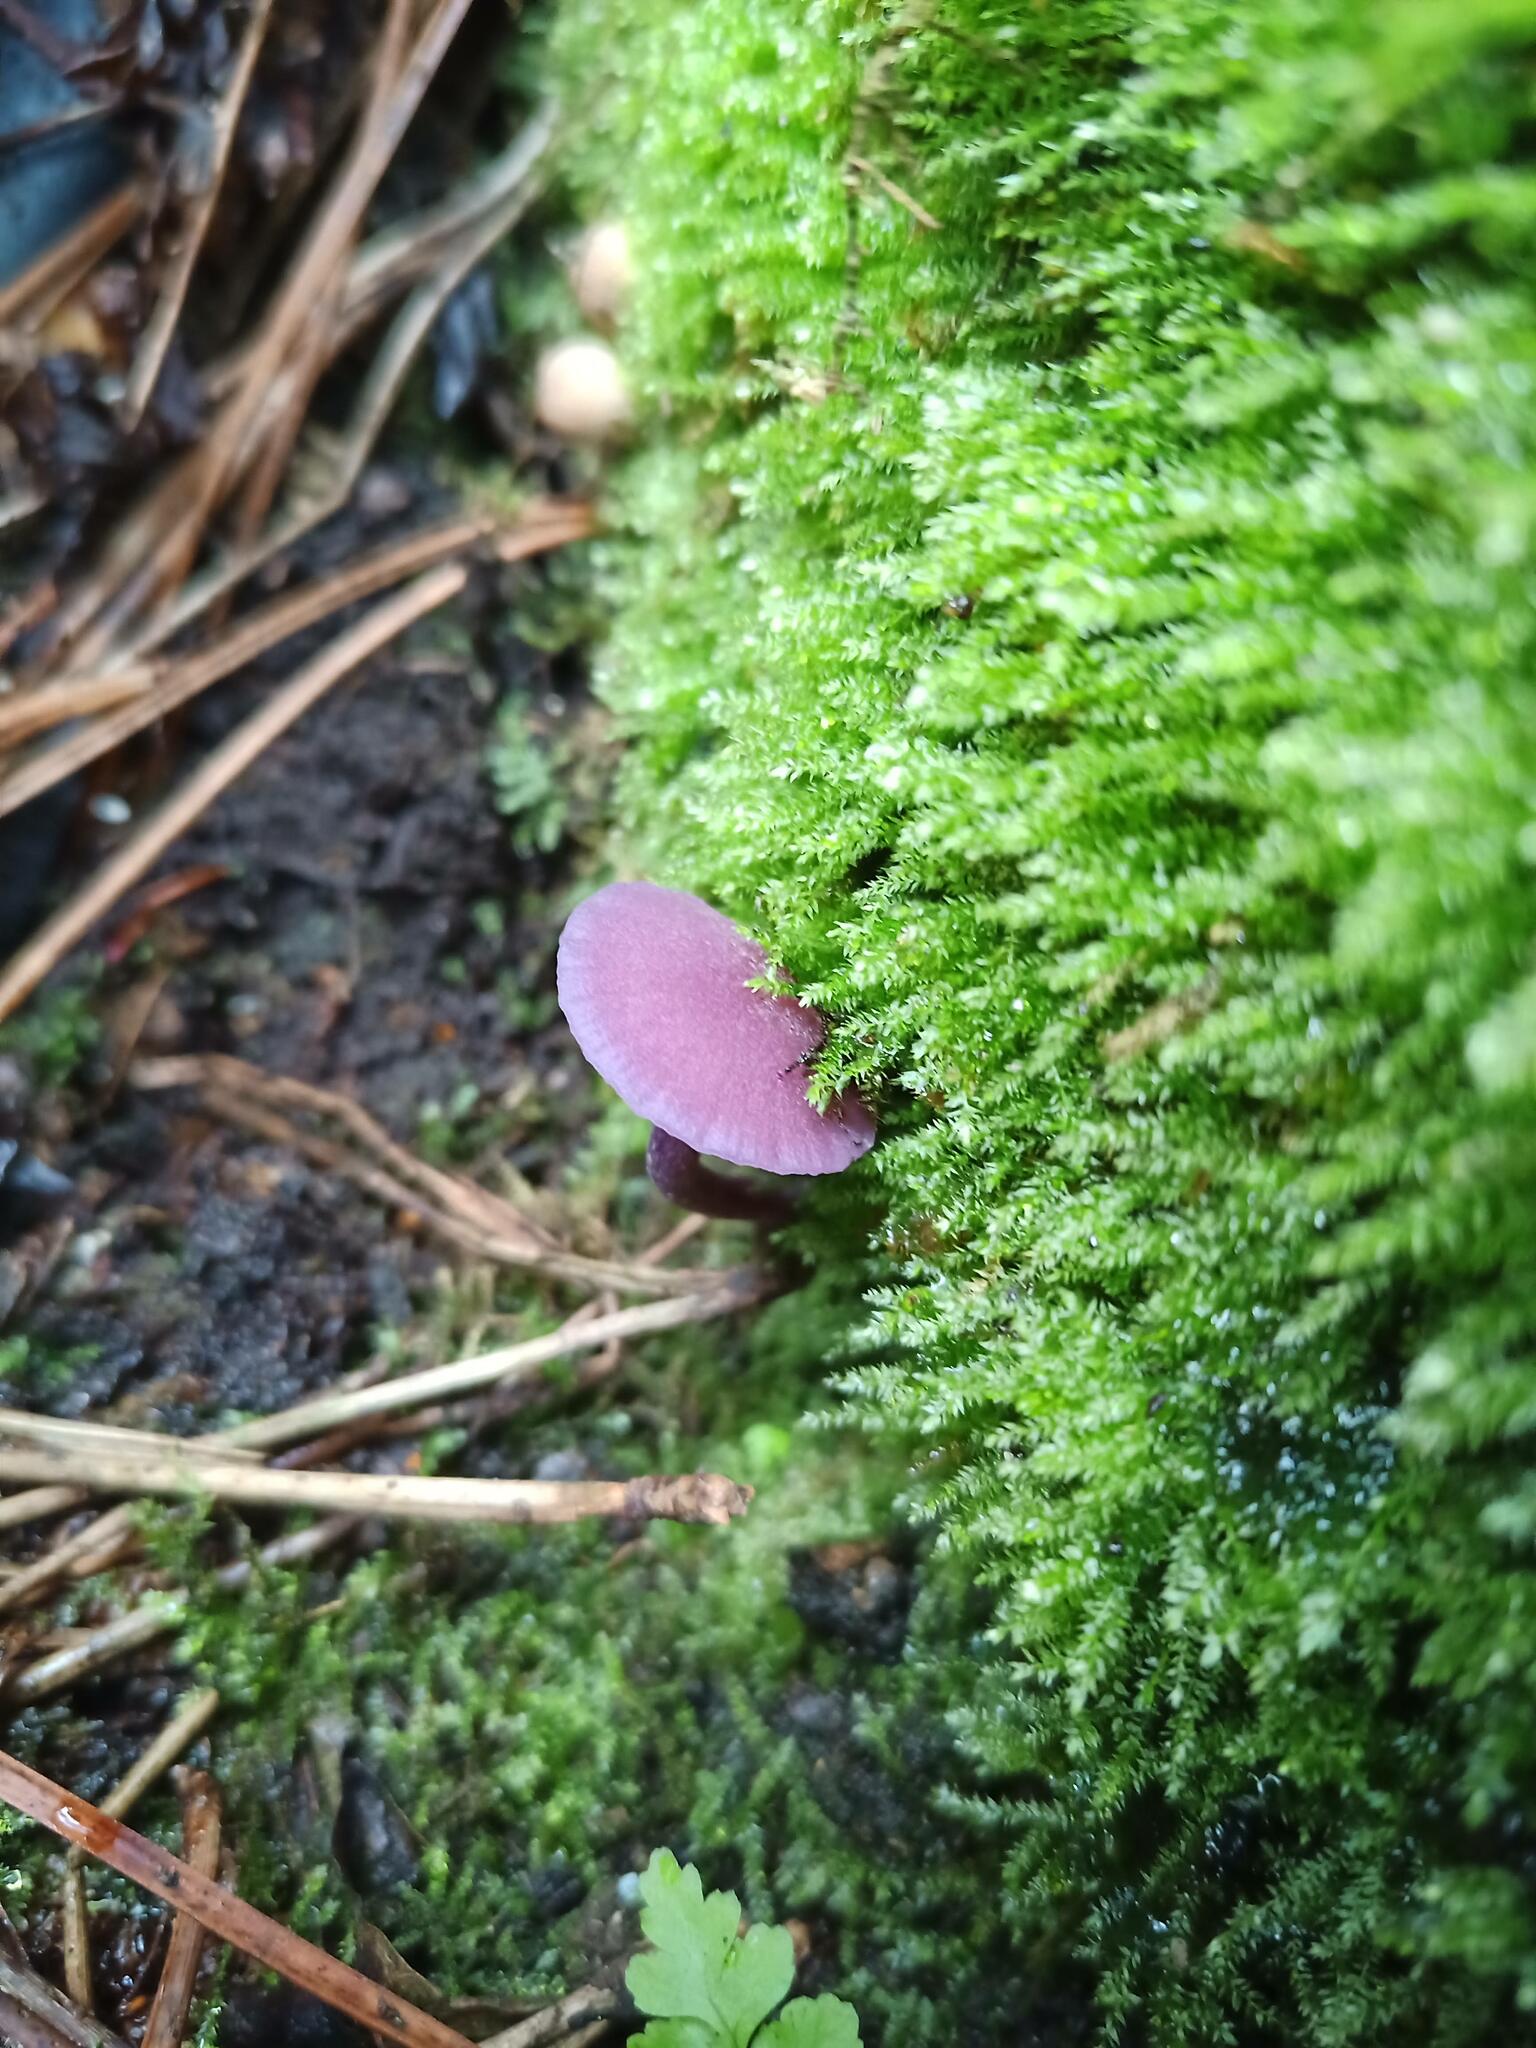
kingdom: Fungi
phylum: Basidiomycota
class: Agaricomycetes
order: Agaricales
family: Hydnangiaceae
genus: Laccaria
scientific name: Laccaria amethystina
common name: Amethyst deceiver
